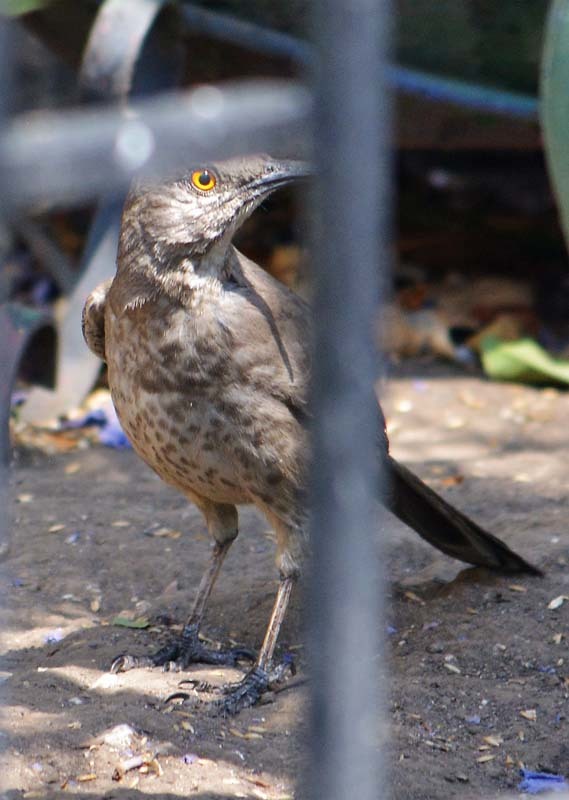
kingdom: Animalia
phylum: Chordata
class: Aves
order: Passeriformes
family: Mimidae
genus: Toxostoma
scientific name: Toxostoma curvirostre
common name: Curve-billed thrasher
